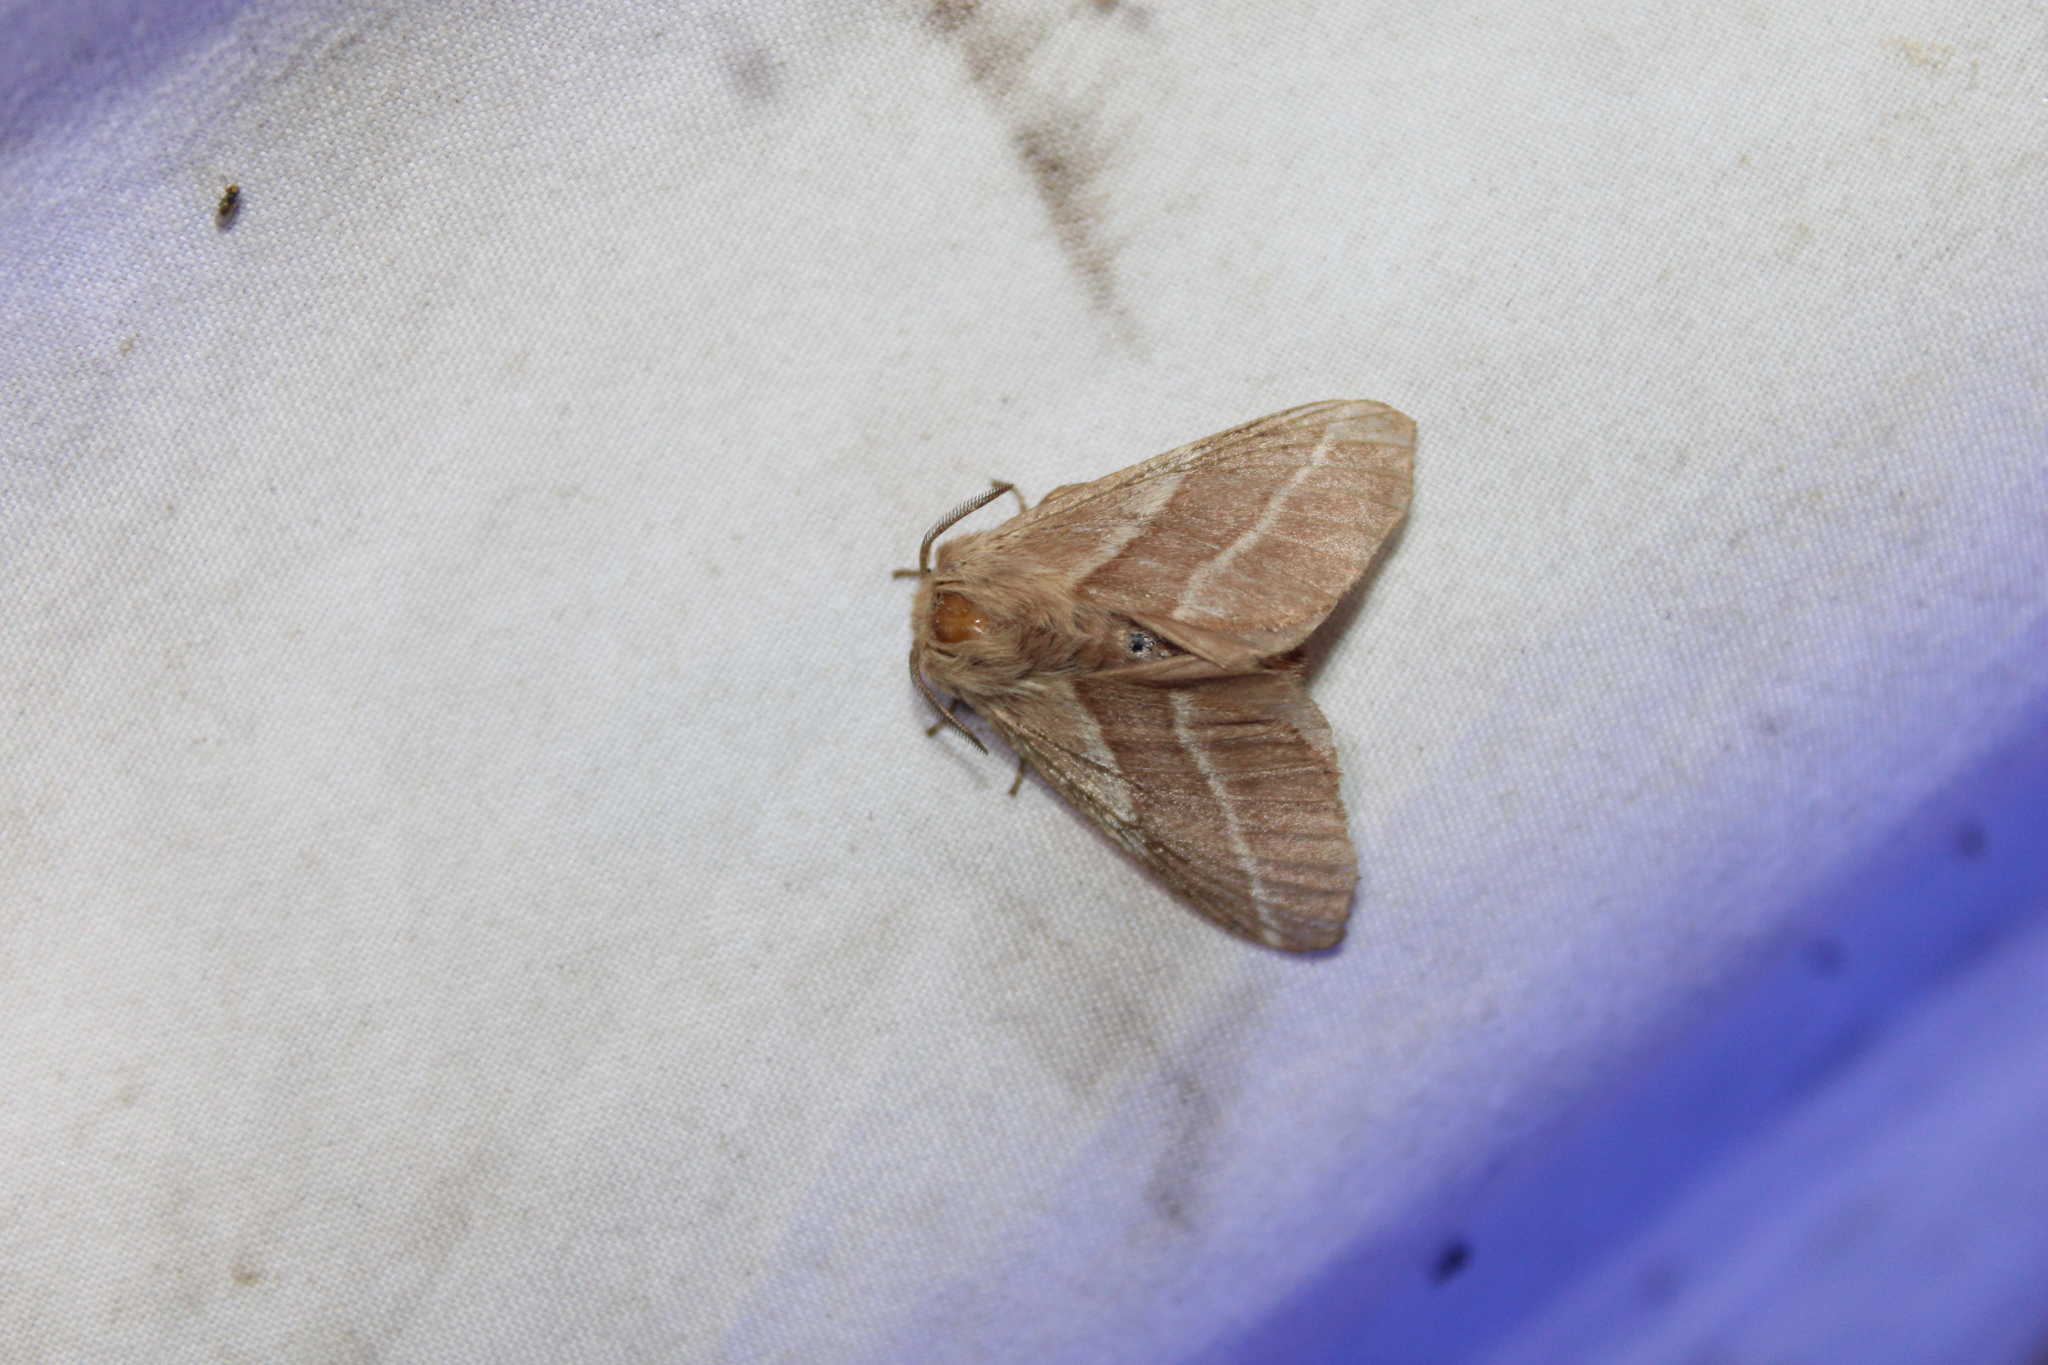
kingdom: Animalia
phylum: Arthropoda
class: Insecta
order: Lepidoptera
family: Lasiocampidae
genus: Malacosoma
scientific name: Malacosoma americana
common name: Eastern tent caterpillar moth
